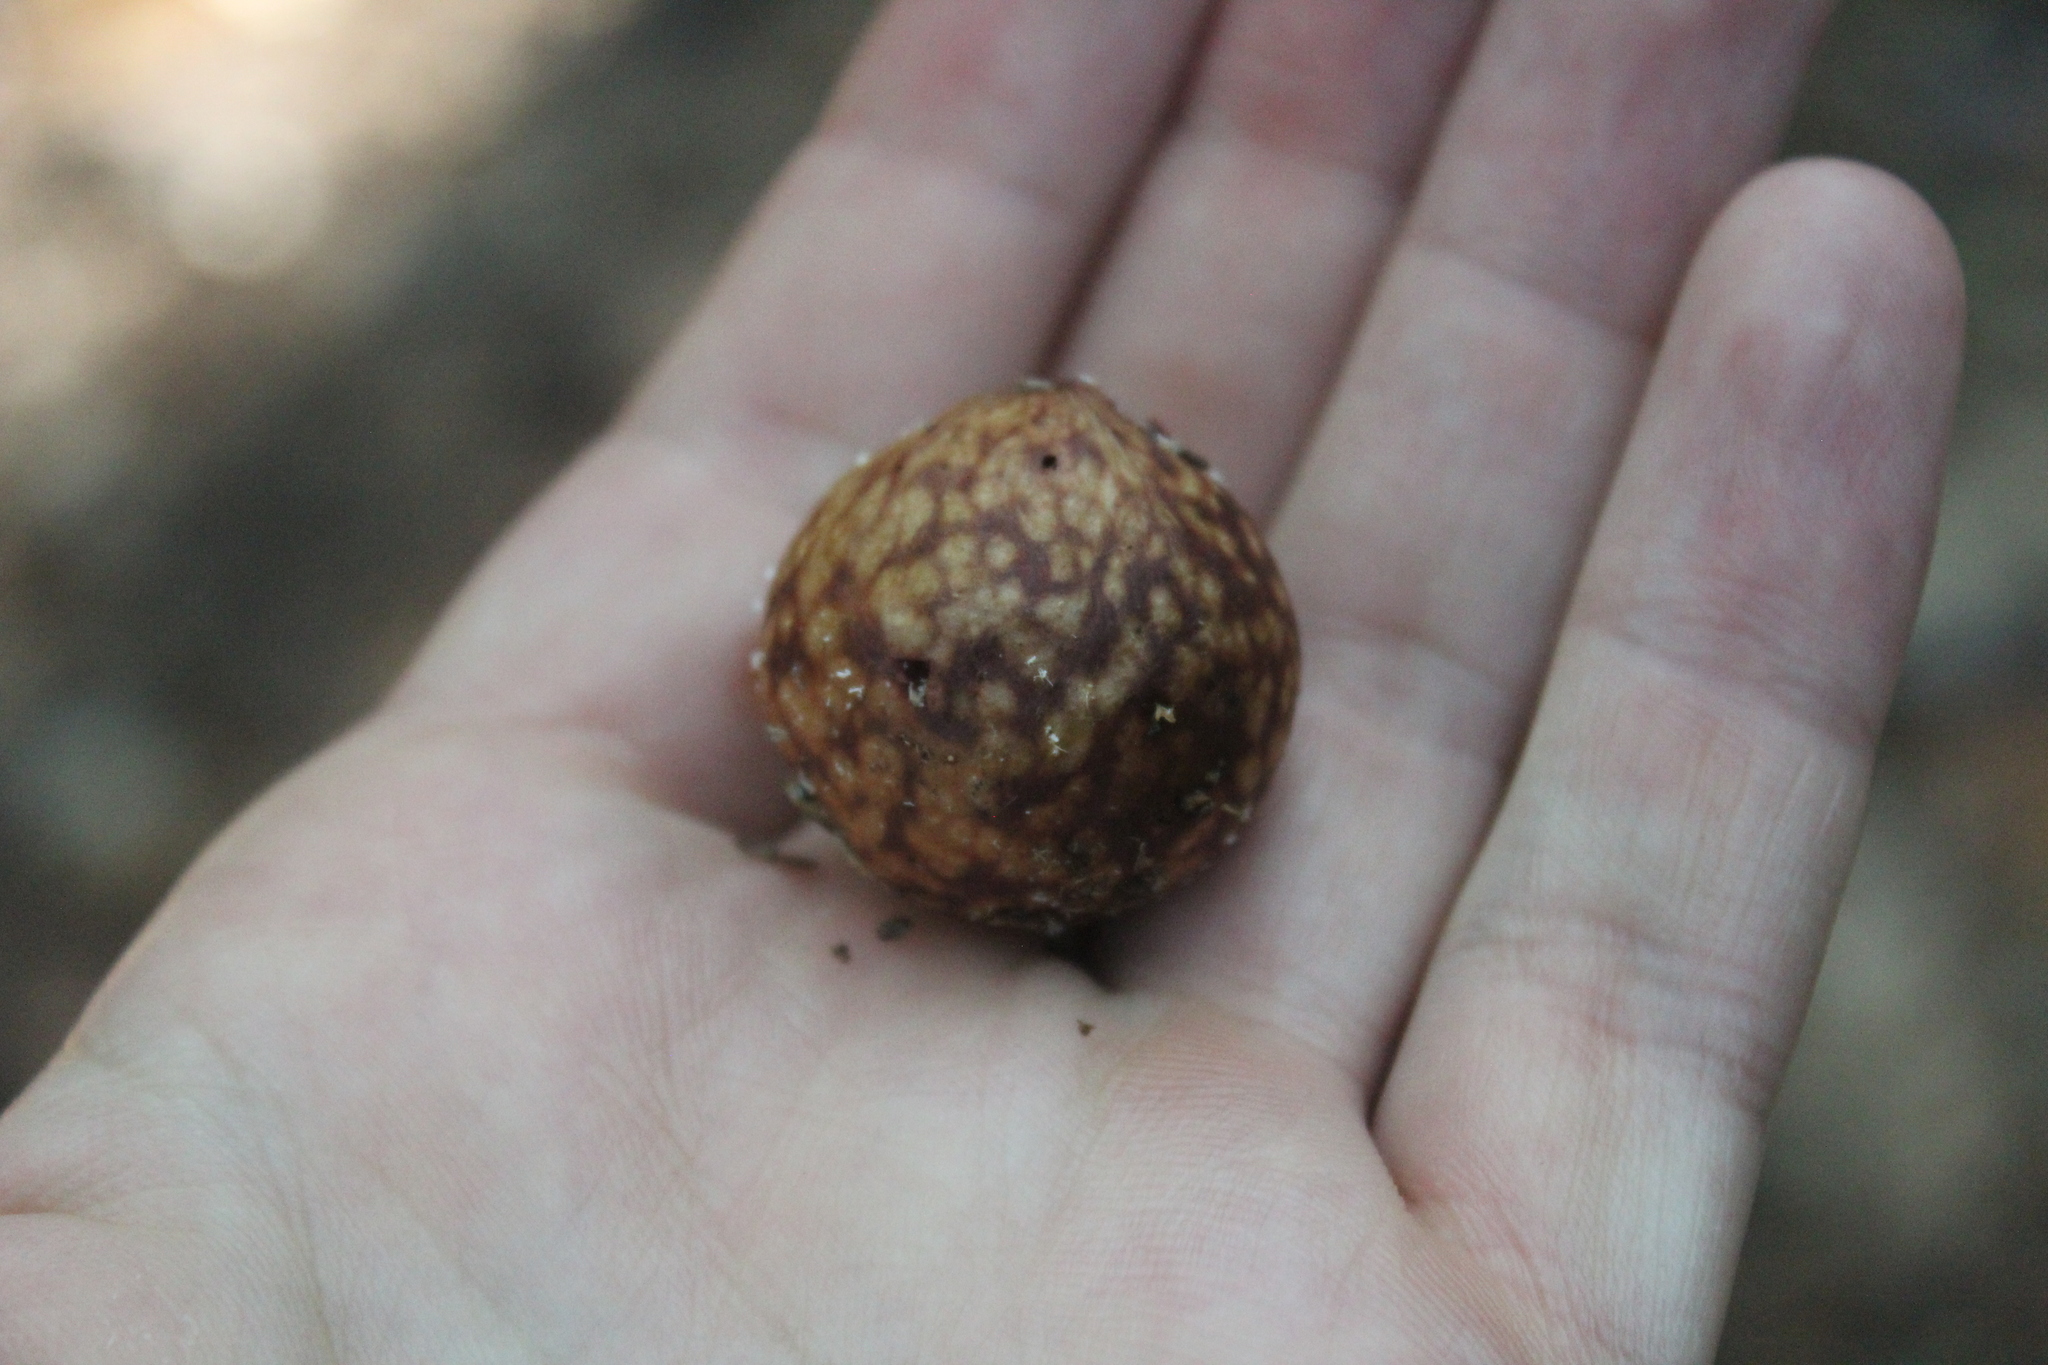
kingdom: Animalia
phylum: Arthropoda
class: Insecta
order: Hymenoptera
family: Cynipidae
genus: Amphibolips
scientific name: Amphibolips
